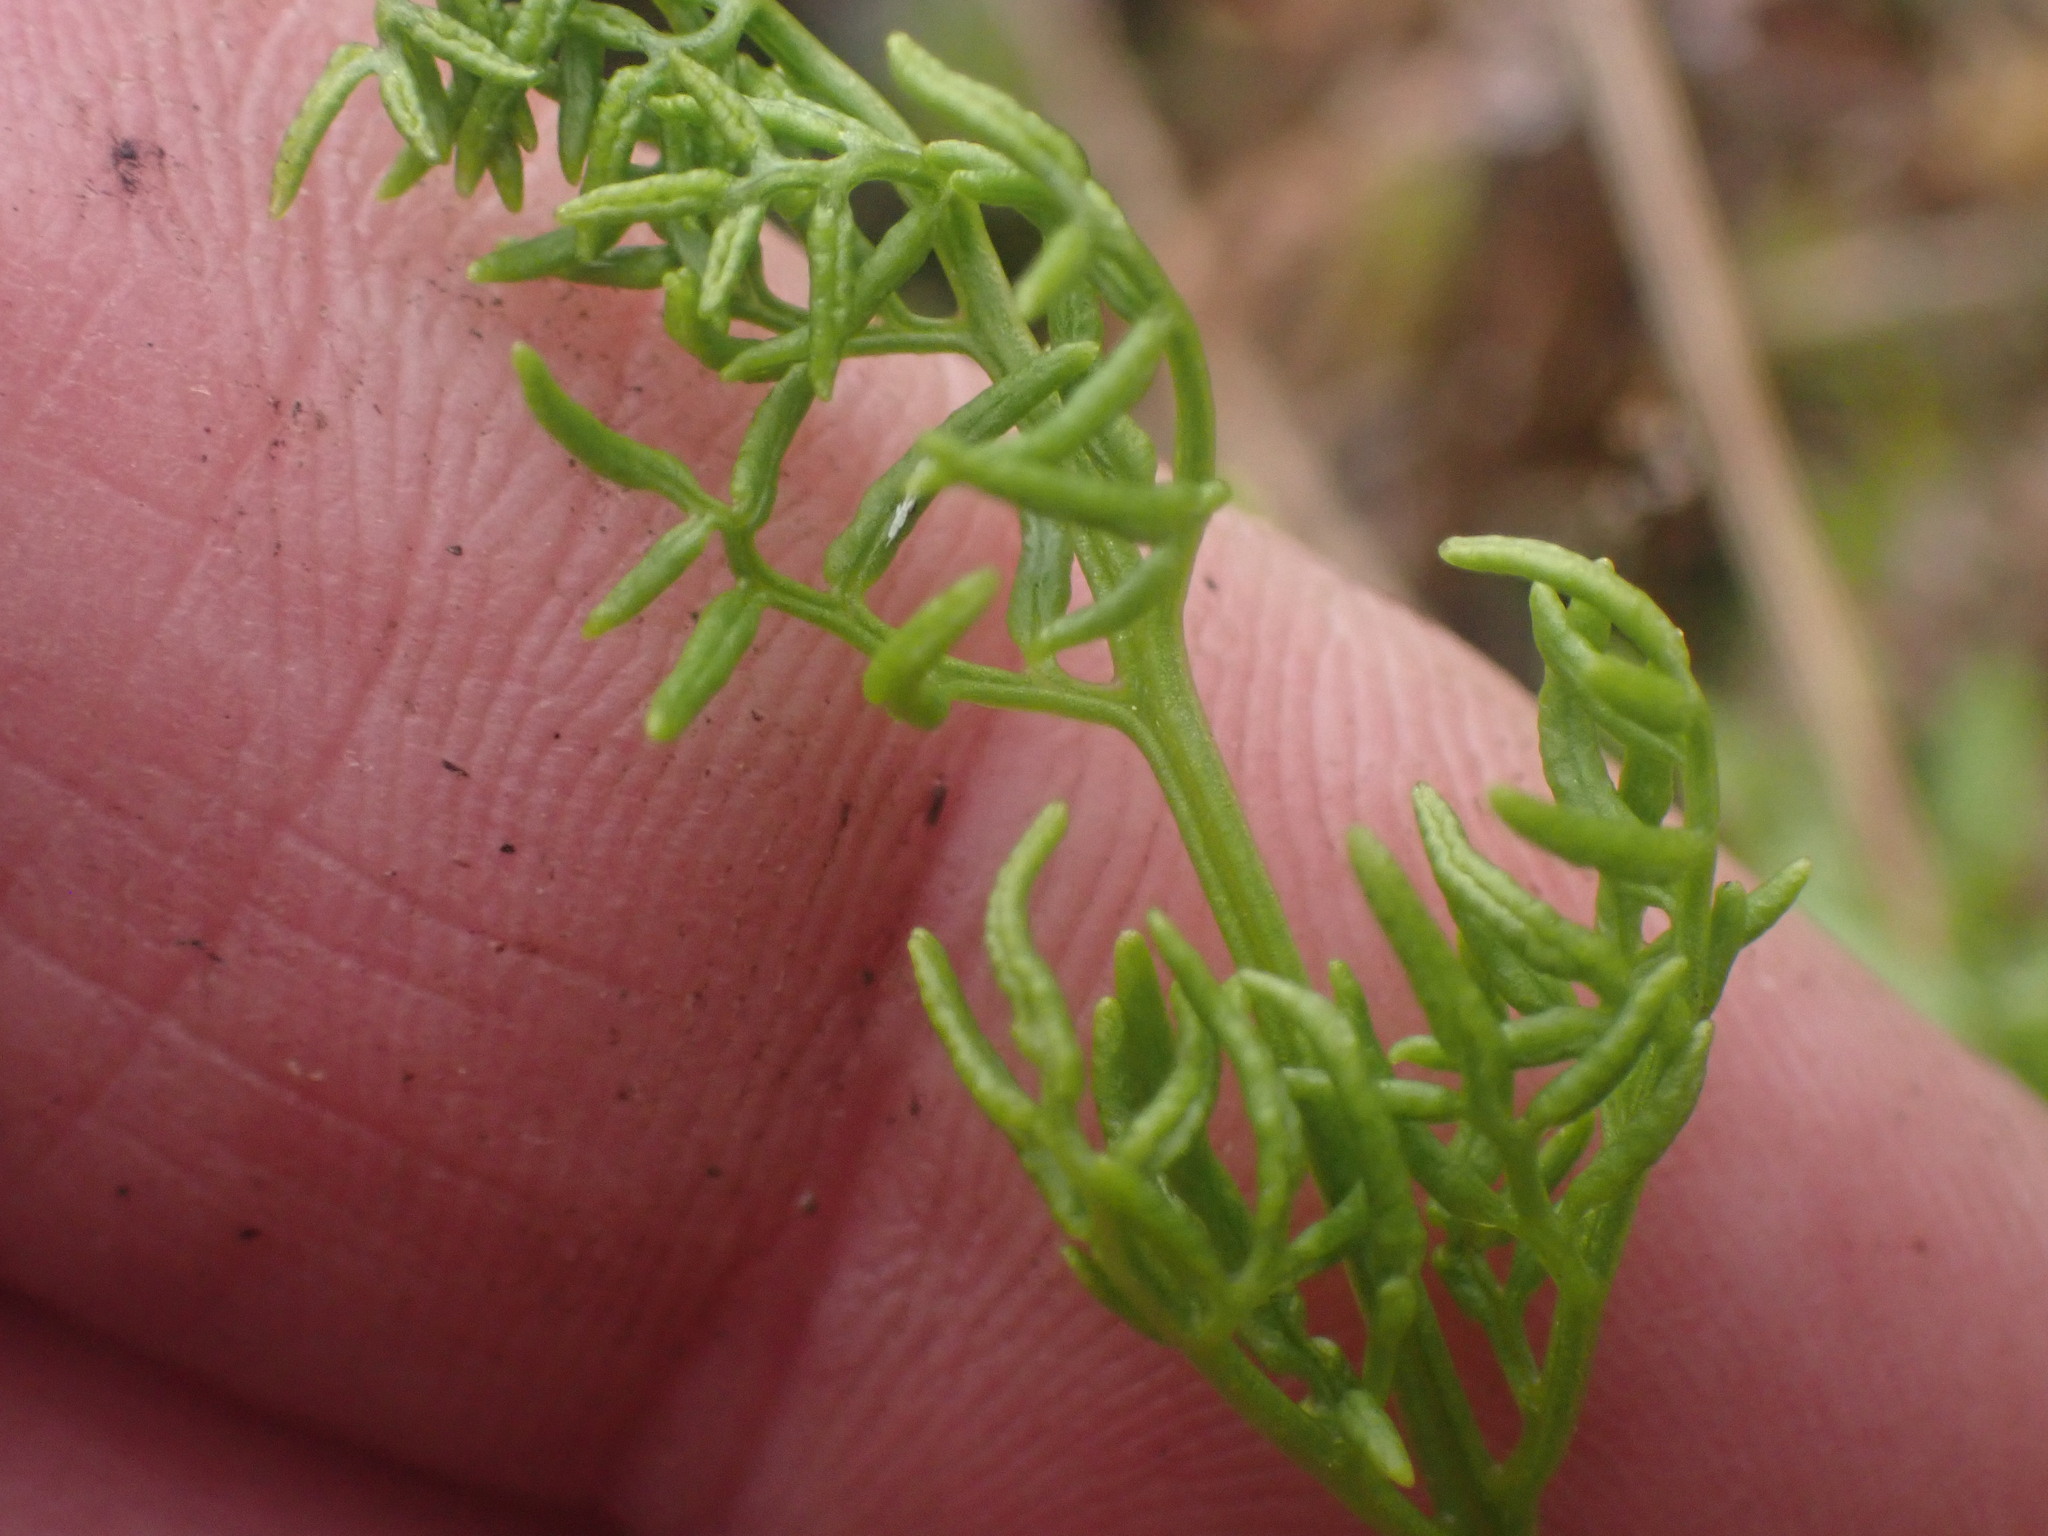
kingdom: Plantae
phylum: Tracheophyta
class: Polypodiopsida
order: Polypodiales
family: Pteridaceae
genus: Cryptogramma
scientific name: Cryptogramma acrostichoides
